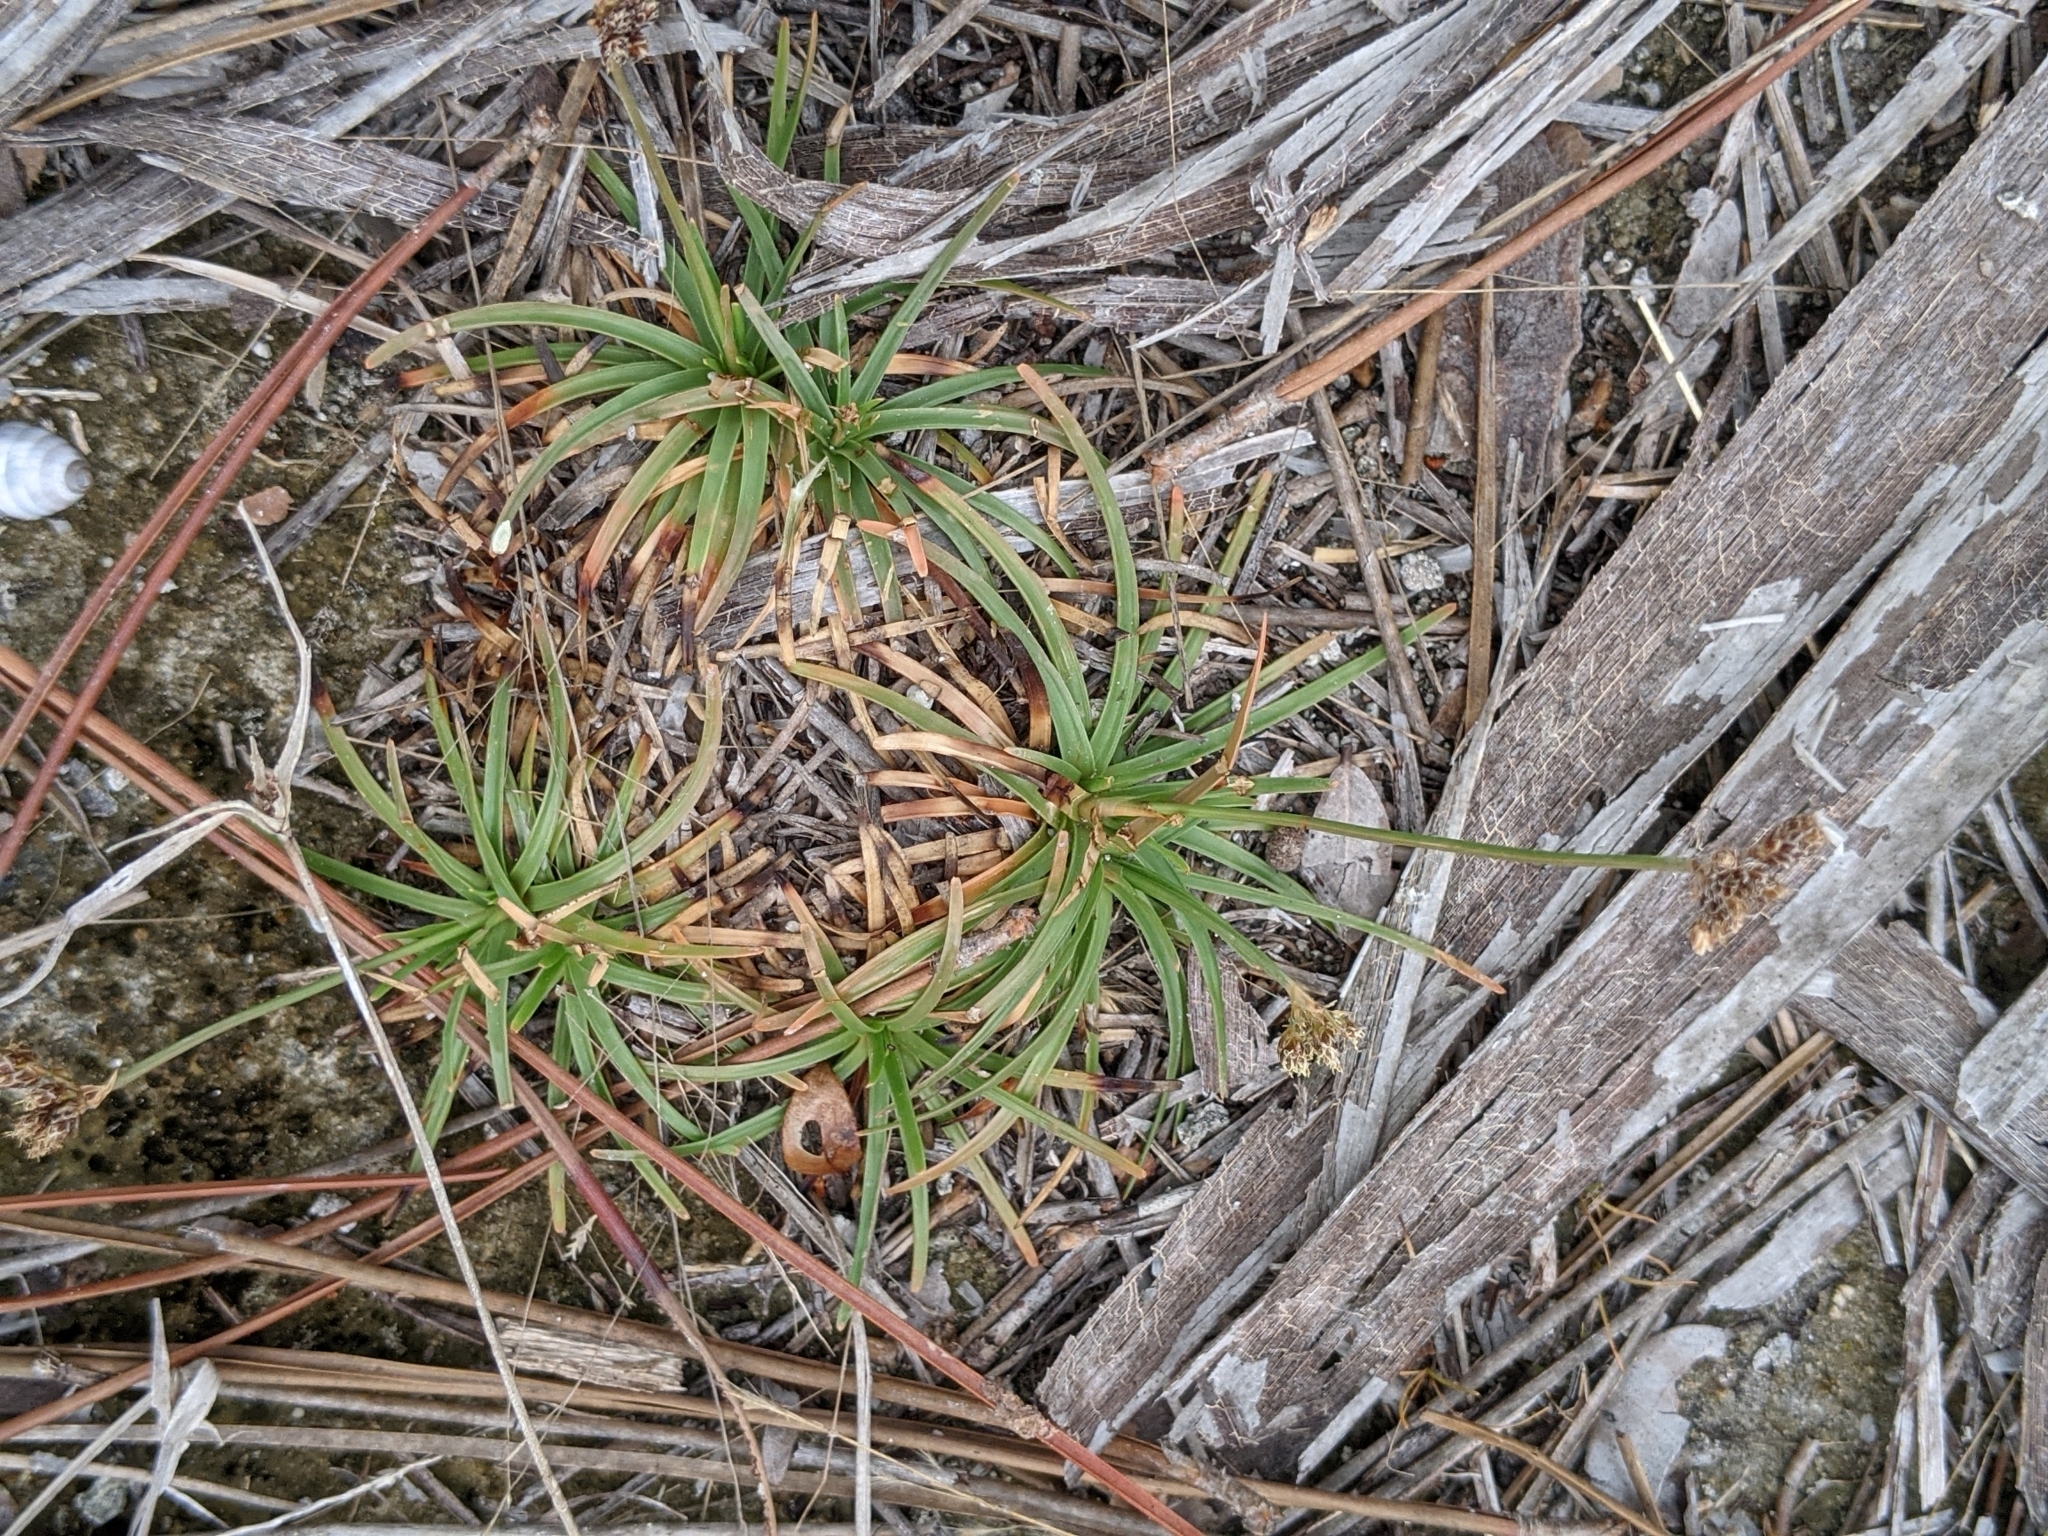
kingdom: Plantae
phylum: Tracheophyta
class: Liliopsida
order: Poales
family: Cyperaceae
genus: Fimbristylis
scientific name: Fimbristylis cymosa
